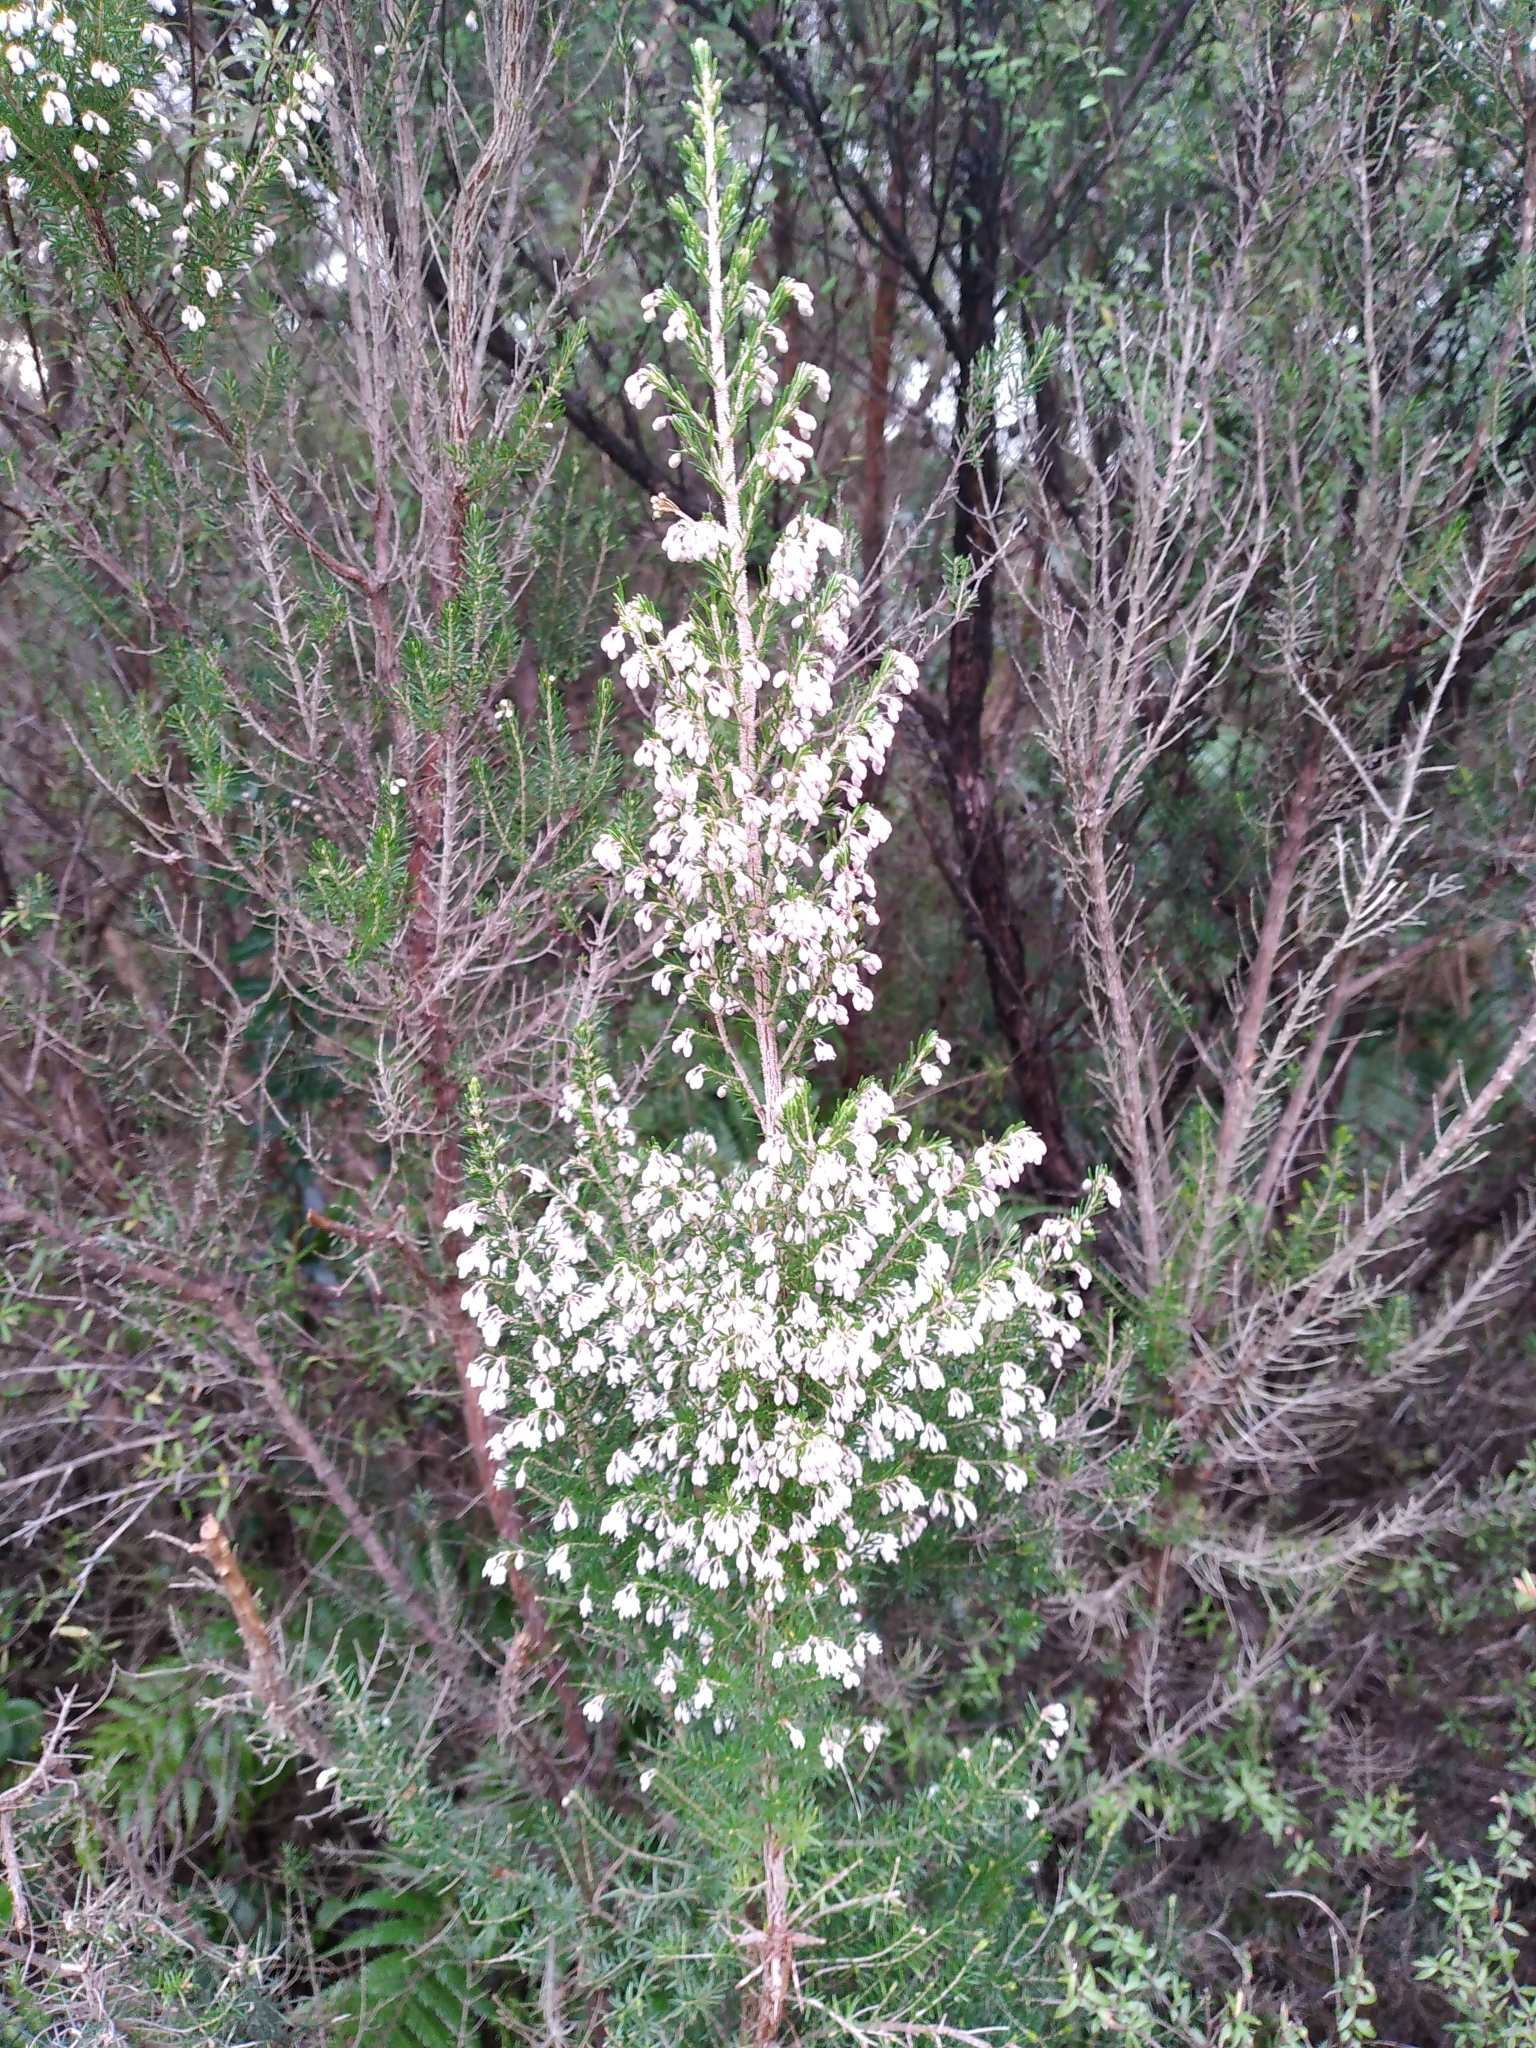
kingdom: Plantae
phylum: Tracheophyta
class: Magnoliopsida
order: Ericales
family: Ericaceae
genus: Erica
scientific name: Erica arborea
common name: Tree heath
